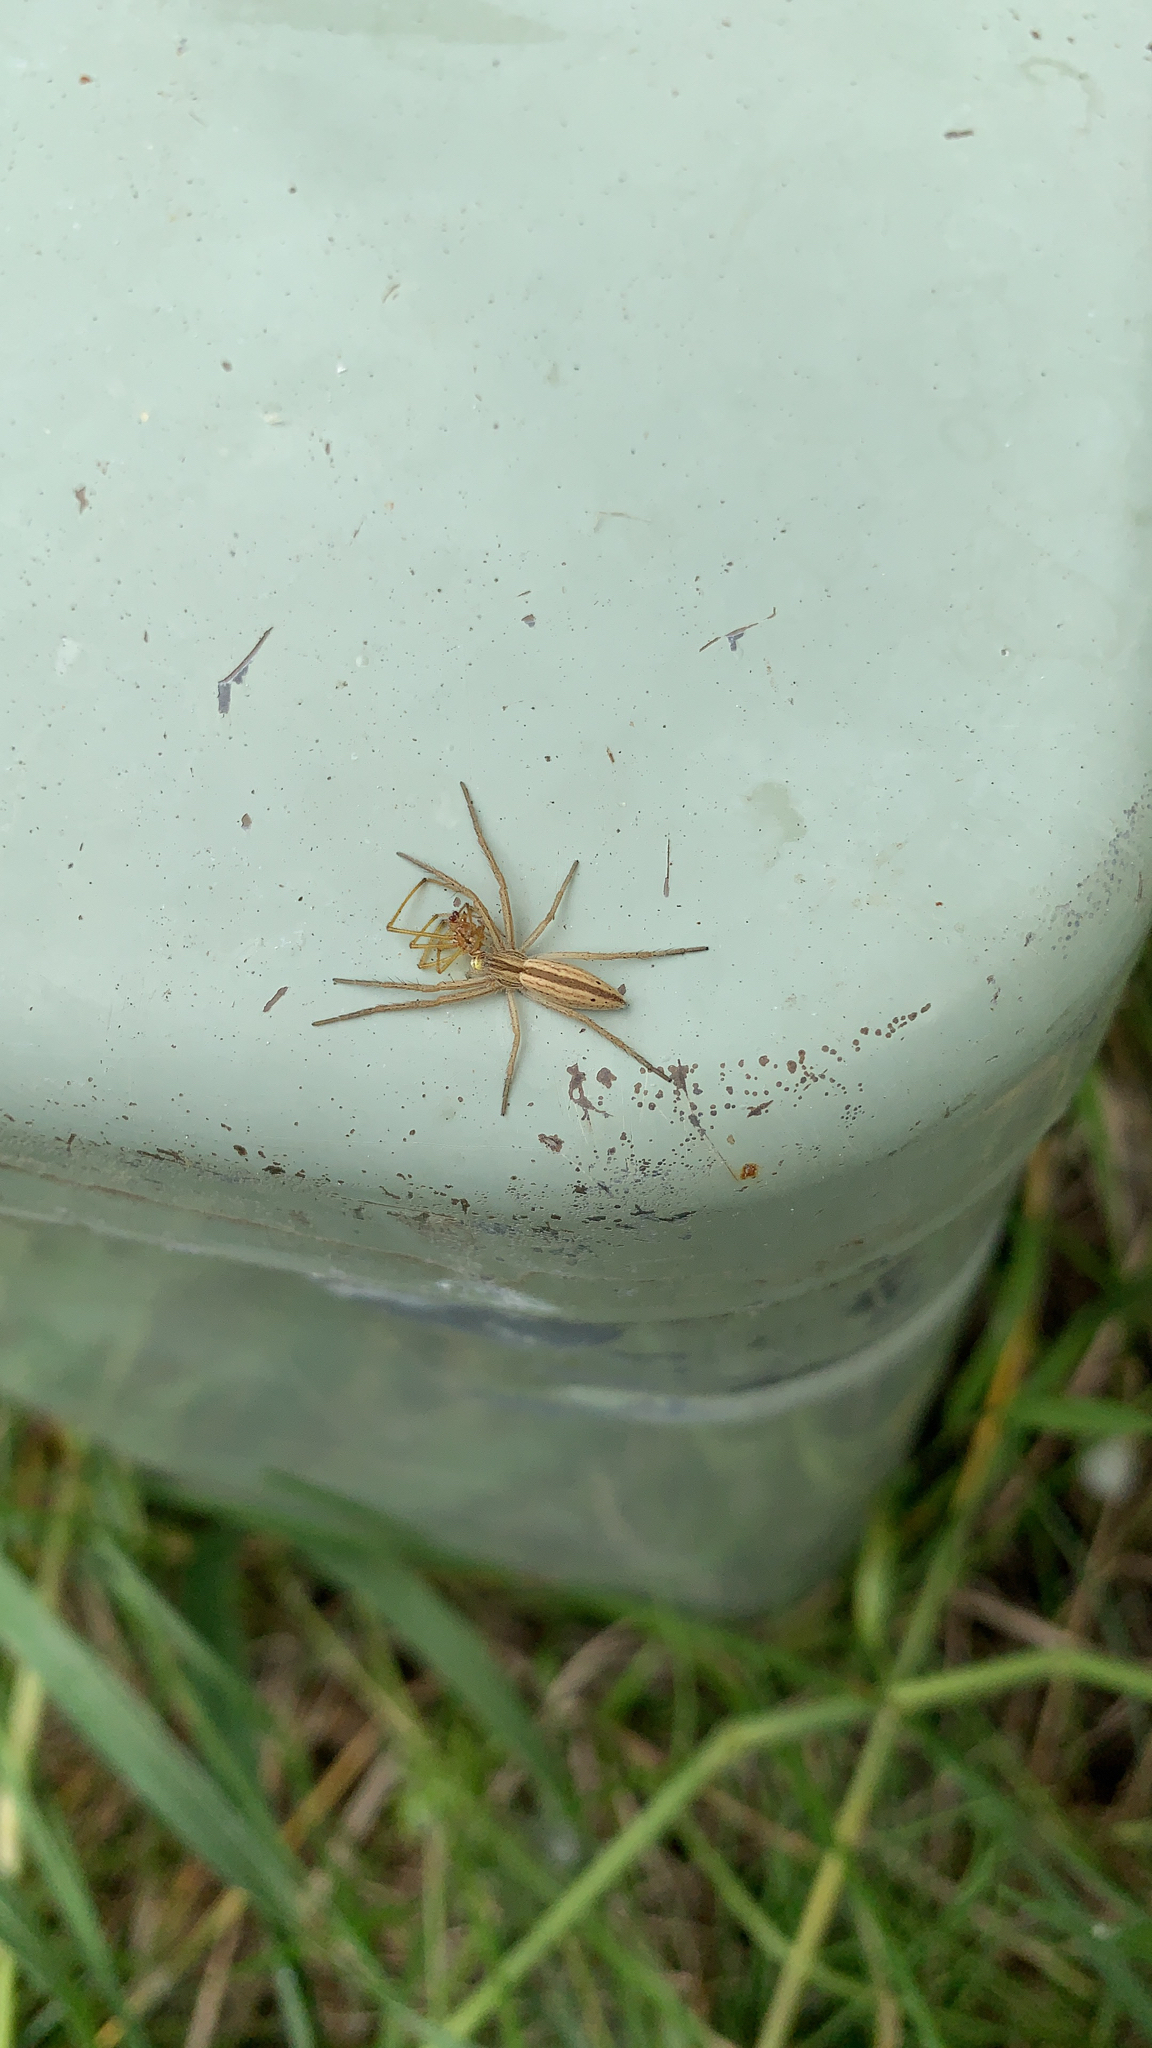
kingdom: Animalia
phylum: Arthropoda
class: Arachnida
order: Araneae
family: Philodromidae
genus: Tibellus
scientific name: Tibellus oblongus
